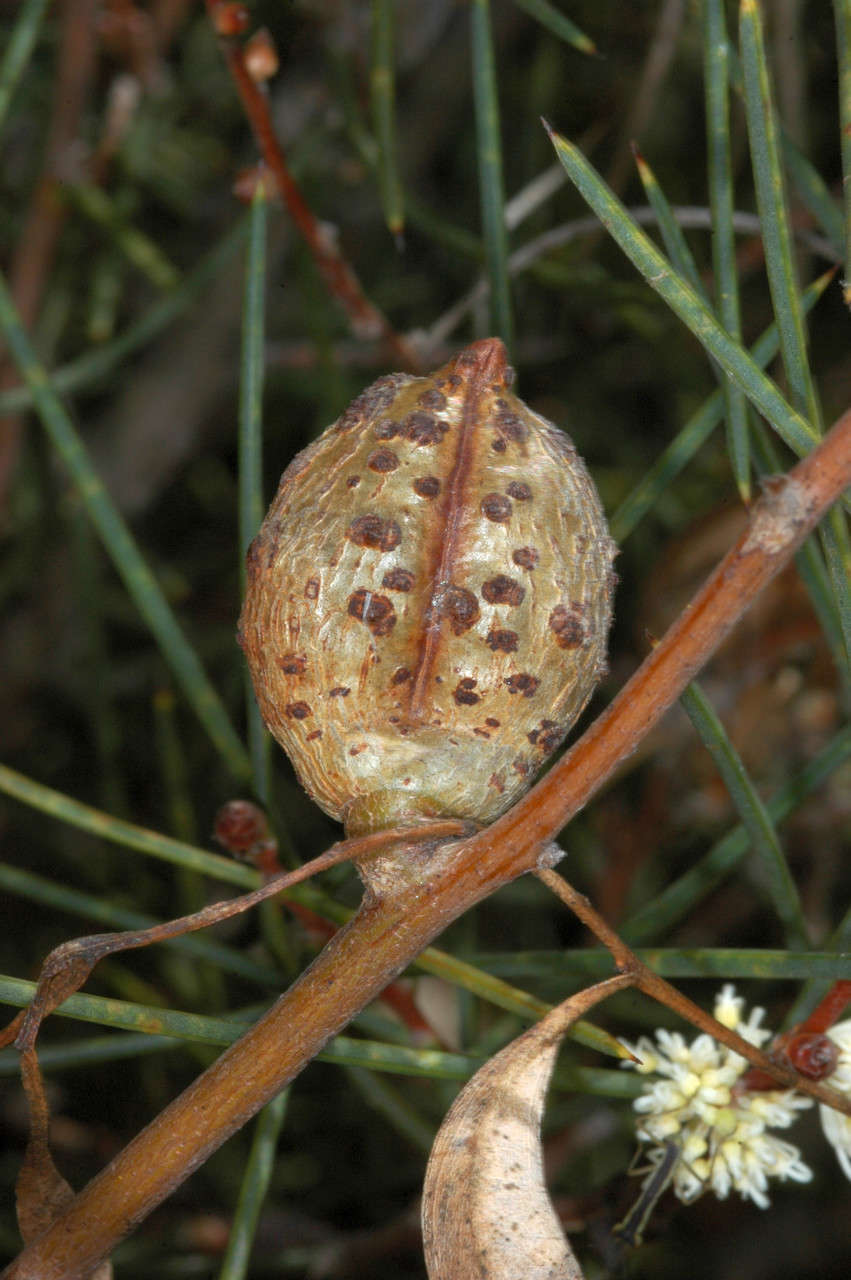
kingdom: Plantae
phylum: Tracheophyta
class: Magnoliopsida
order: Proteales
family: Proteaceae
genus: Hakea
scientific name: Hakea mitchellii
